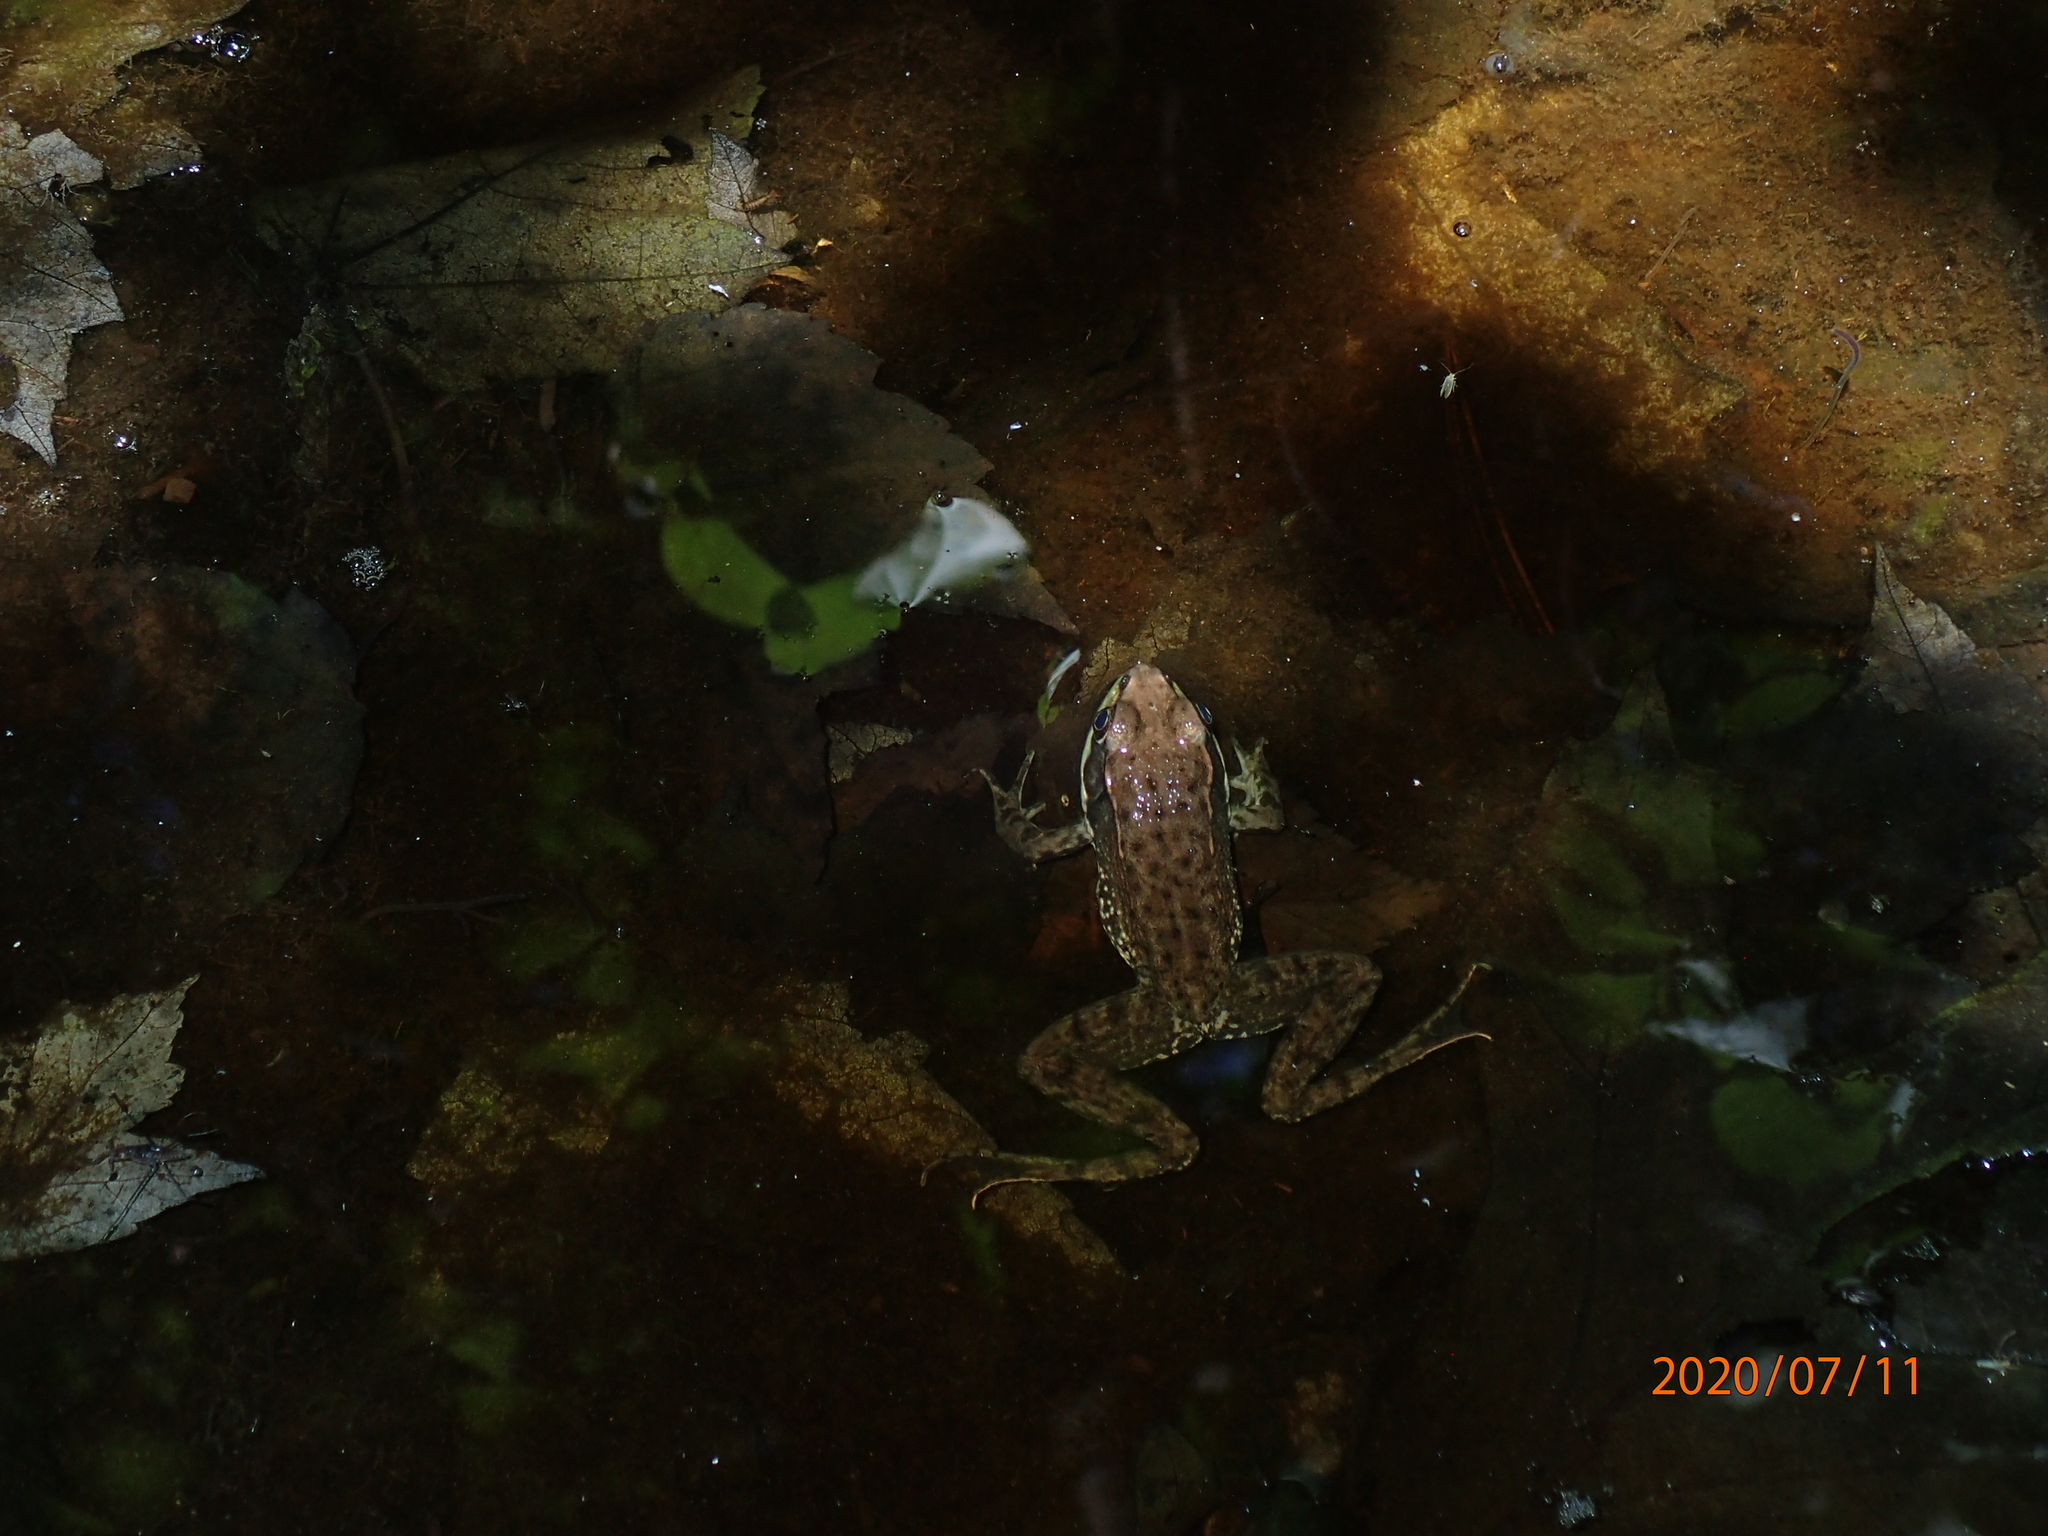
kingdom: Animalia
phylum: Chordata
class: Amphibia
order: Anura
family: Ranidae
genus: Lithobates
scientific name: Lithobates clamitans
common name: Green frog
